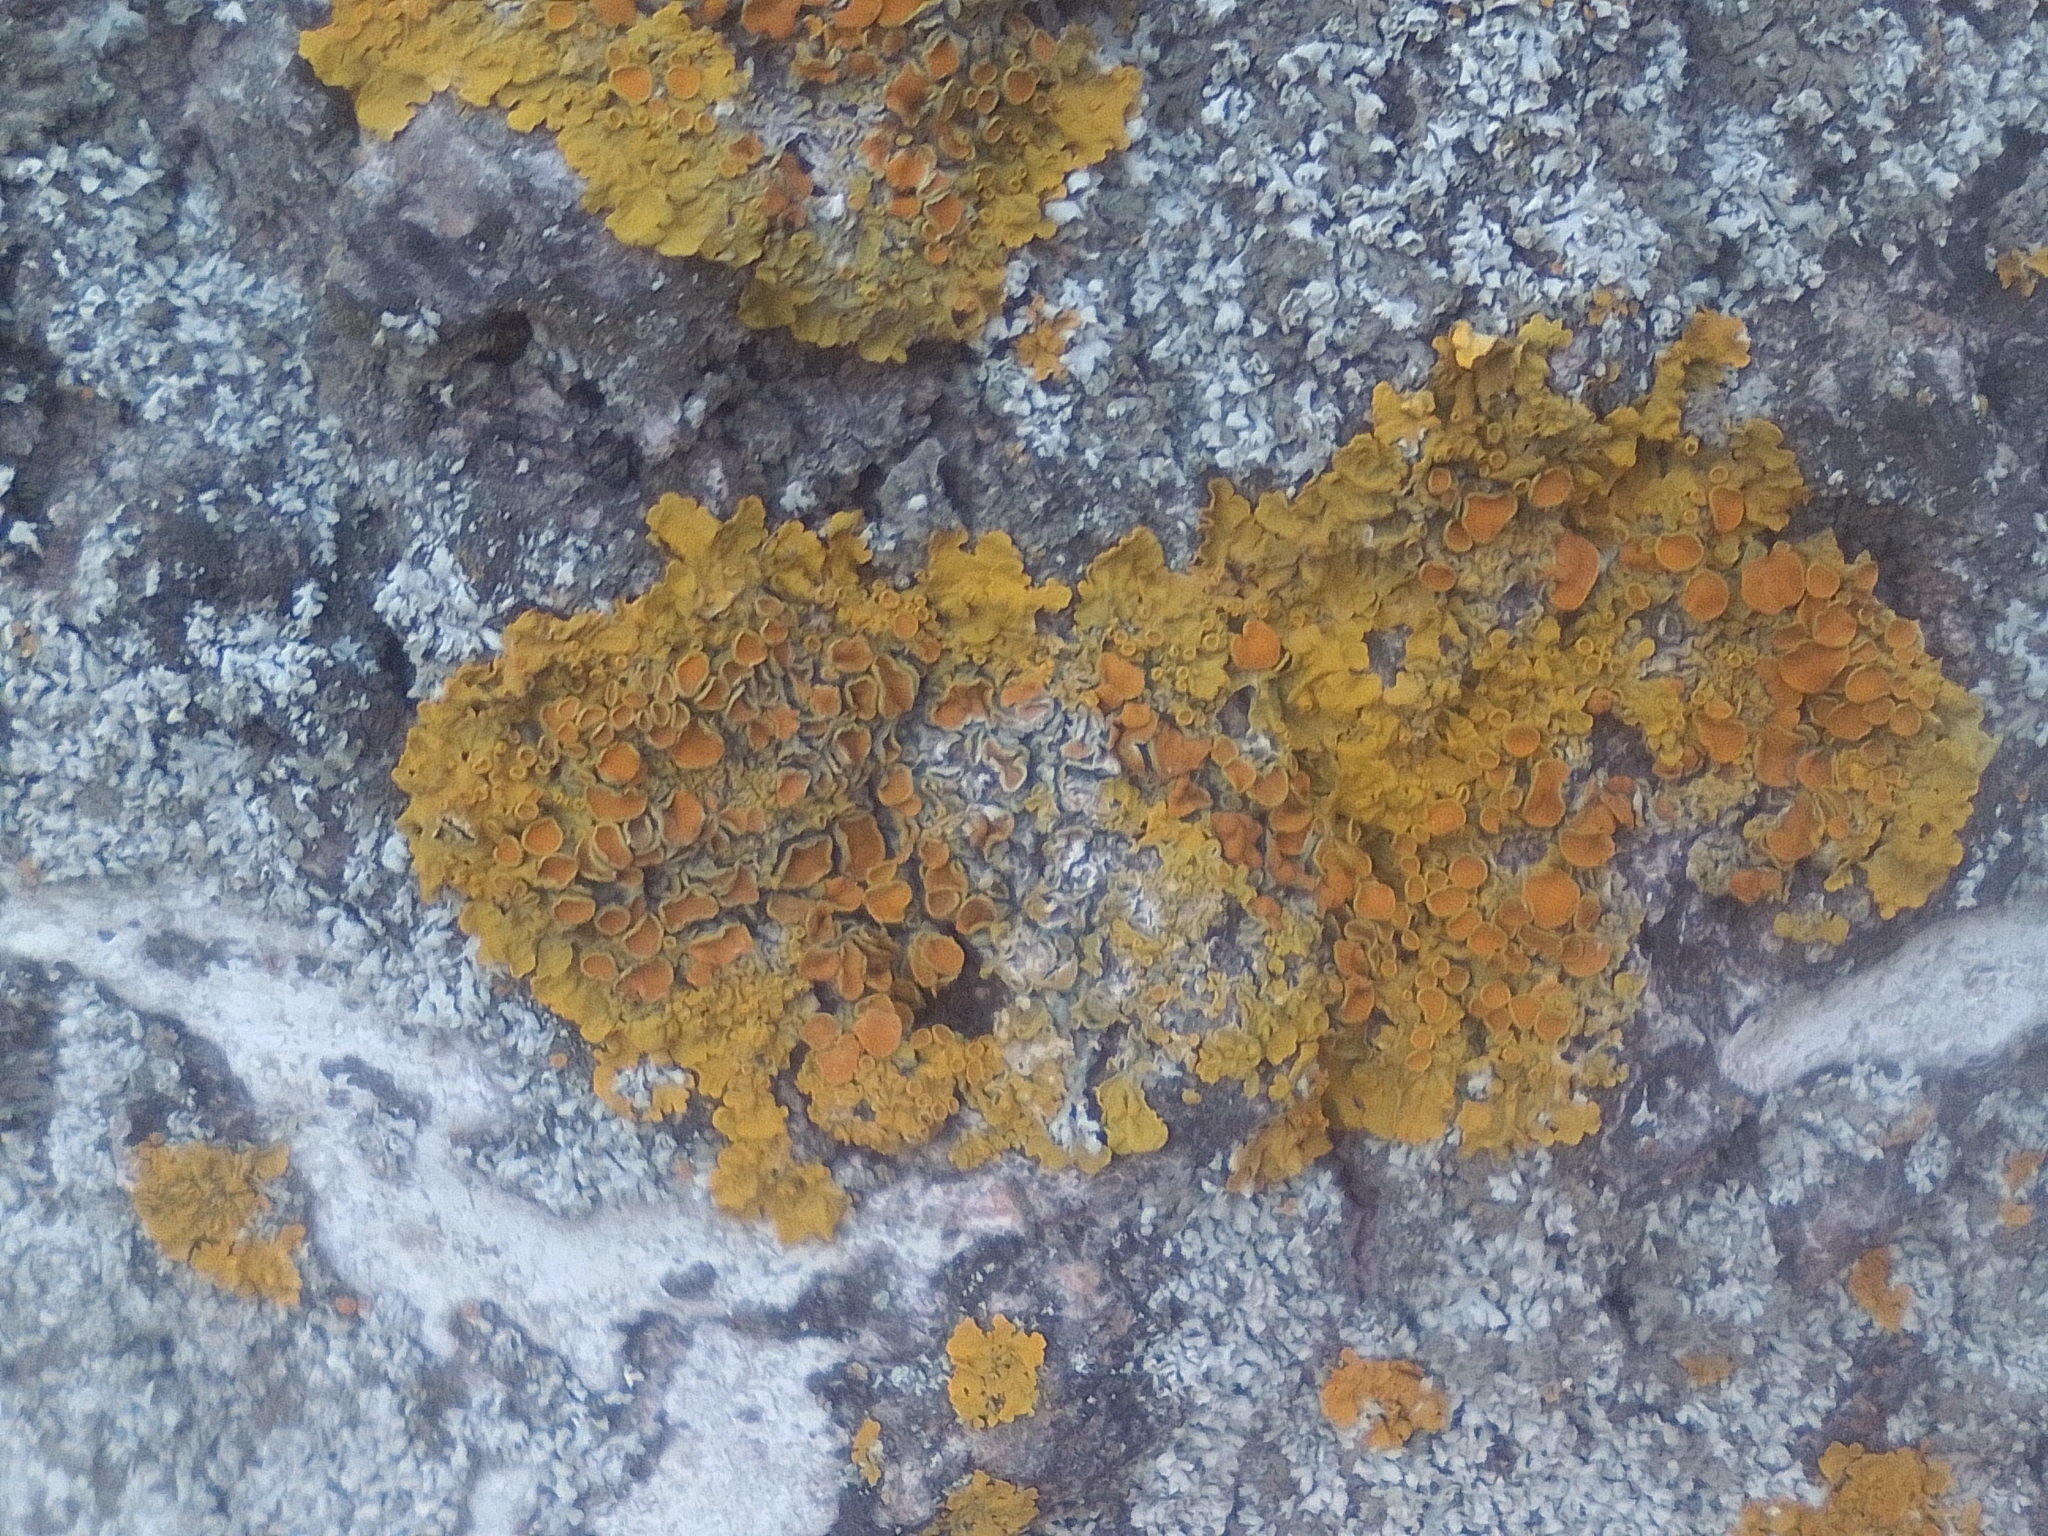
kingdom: Fungi
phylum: Ascomycota
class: Lecanoromycetes
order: Teloschistales
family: Teloschistaceae
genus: Xanthoria
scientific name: Xanthoria parietina
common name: Common orange lichen
